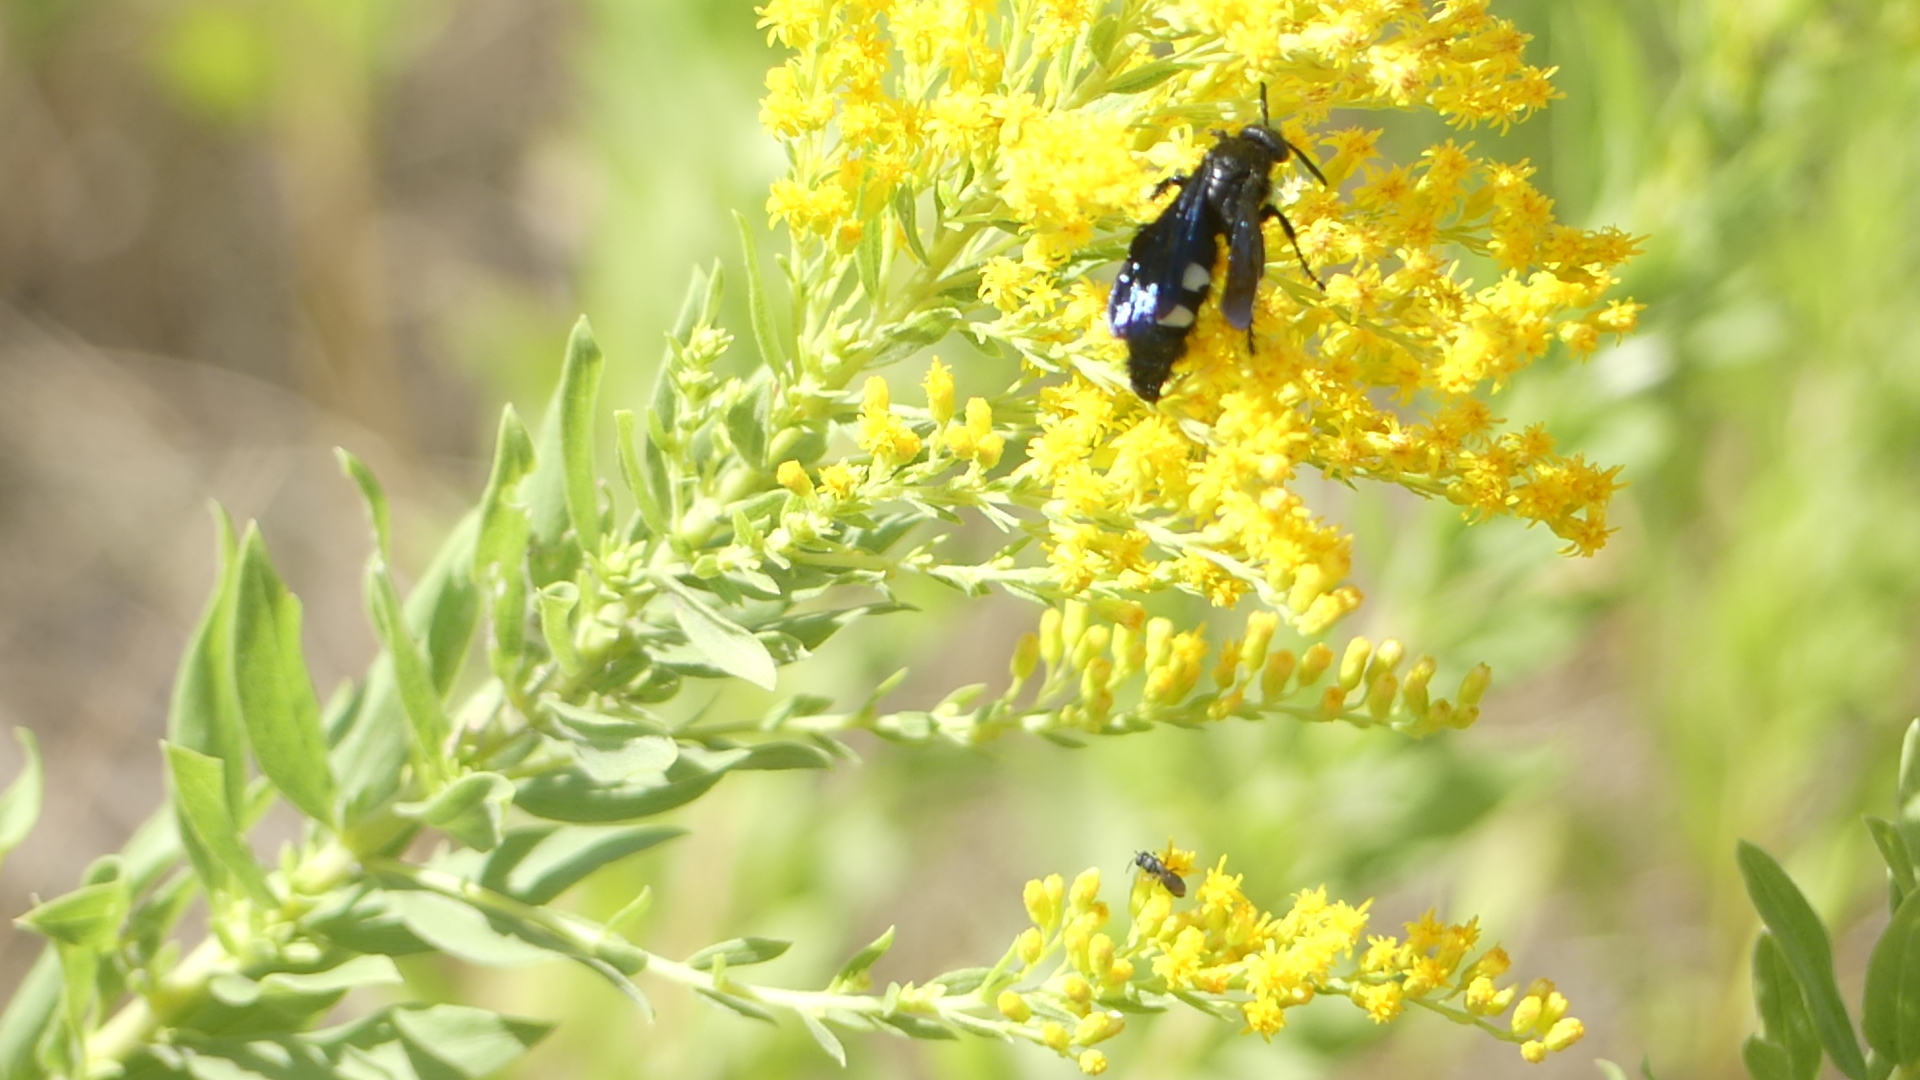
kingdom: Animalia
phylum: Arthropoda
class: Insecta
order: Hymenoptera
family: Scoliidae
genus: Scolia
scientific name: Scolia bicincta
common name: Double-banded scoliid wasp
